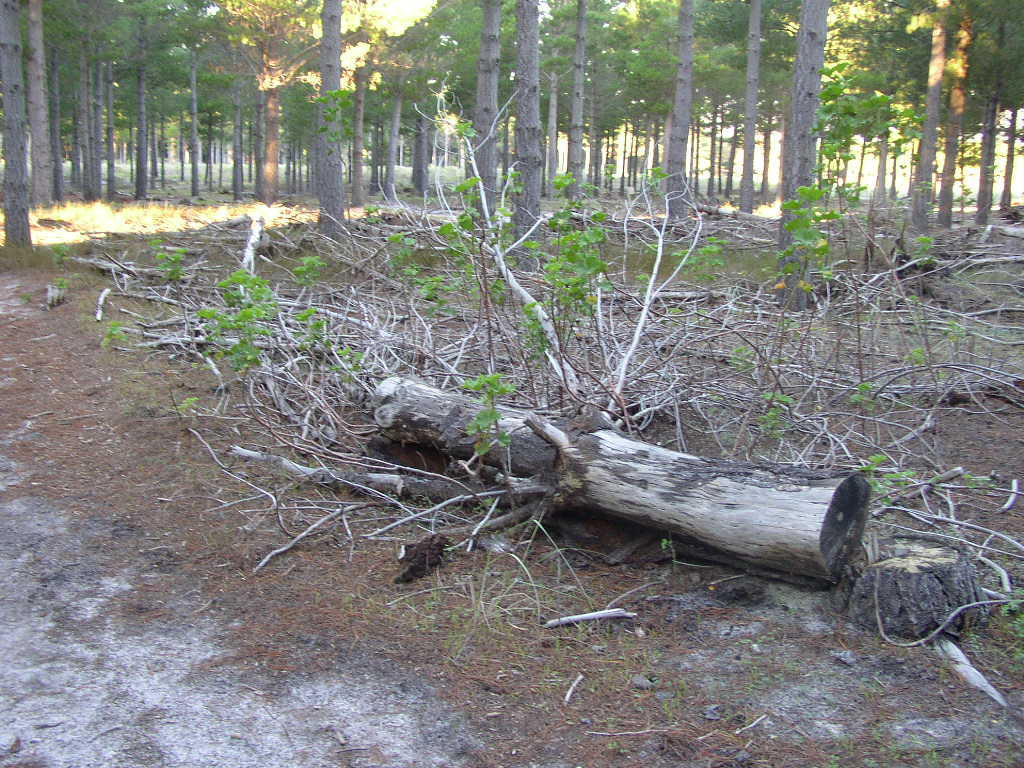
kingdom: Plantae
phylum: Tracheophyta
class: Magnoliopsida
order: Geraniales
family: Geraniaceae
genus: Pelargonium
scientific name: Pelargonium cucullatum
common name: Tree pelargonium
